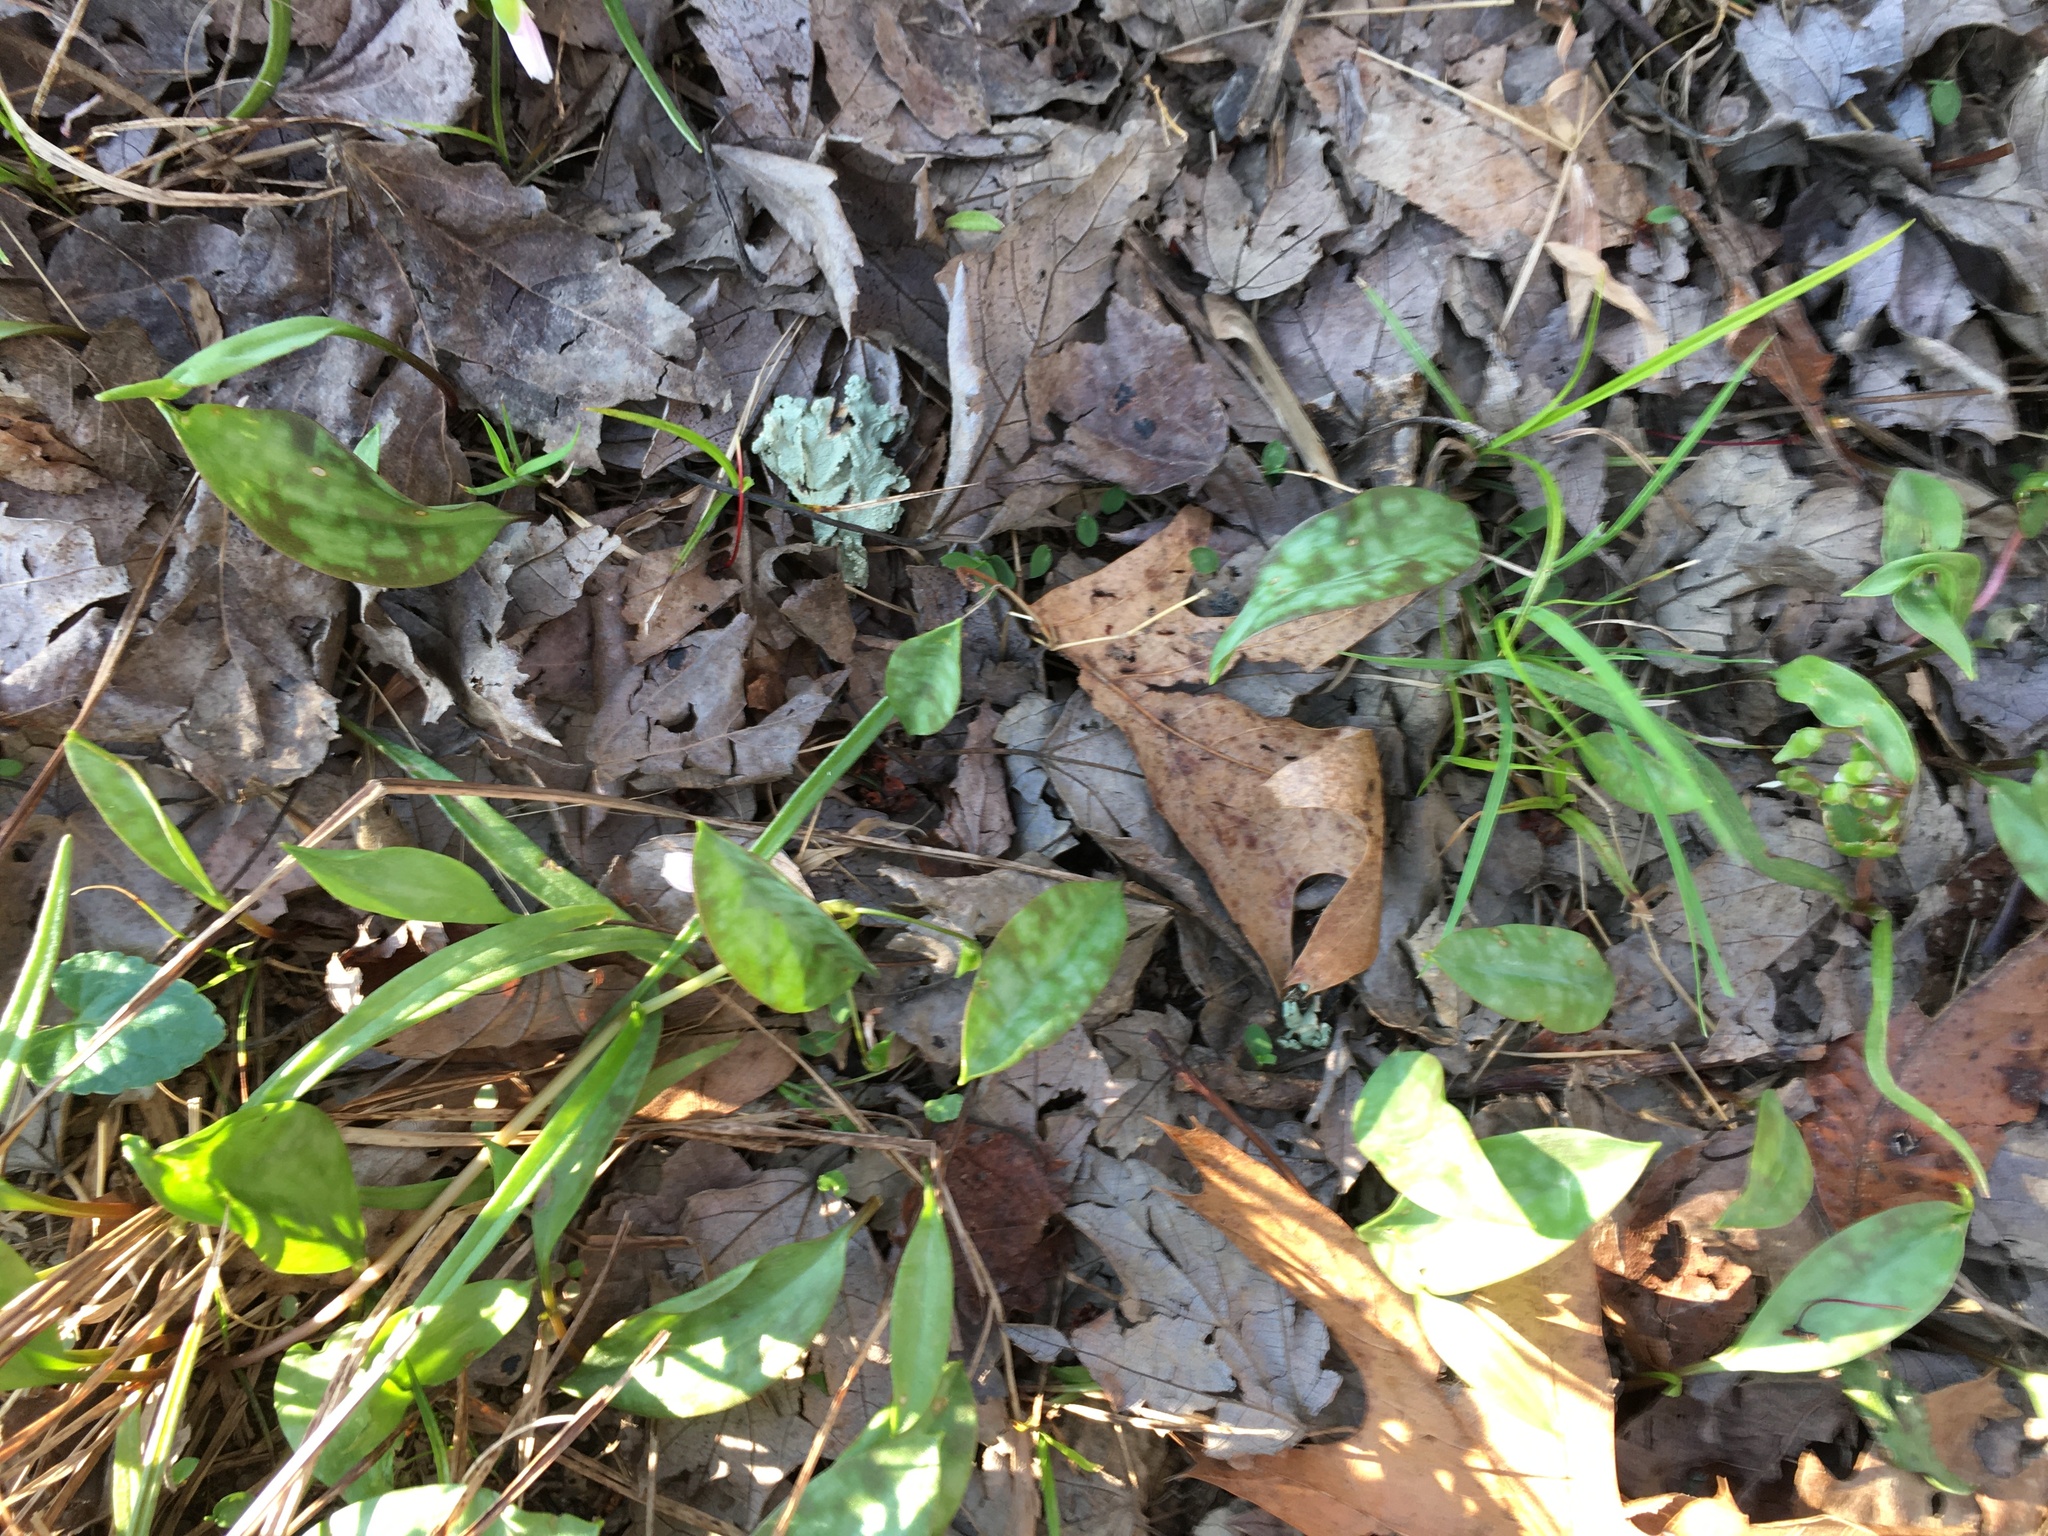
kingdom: Plantae
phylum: Tracheophyta
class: Liliopsida
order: Liliales
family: Liliaceae
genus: Erythronium
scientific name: Erythronium americanum
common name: Yellow adder's-tongue
